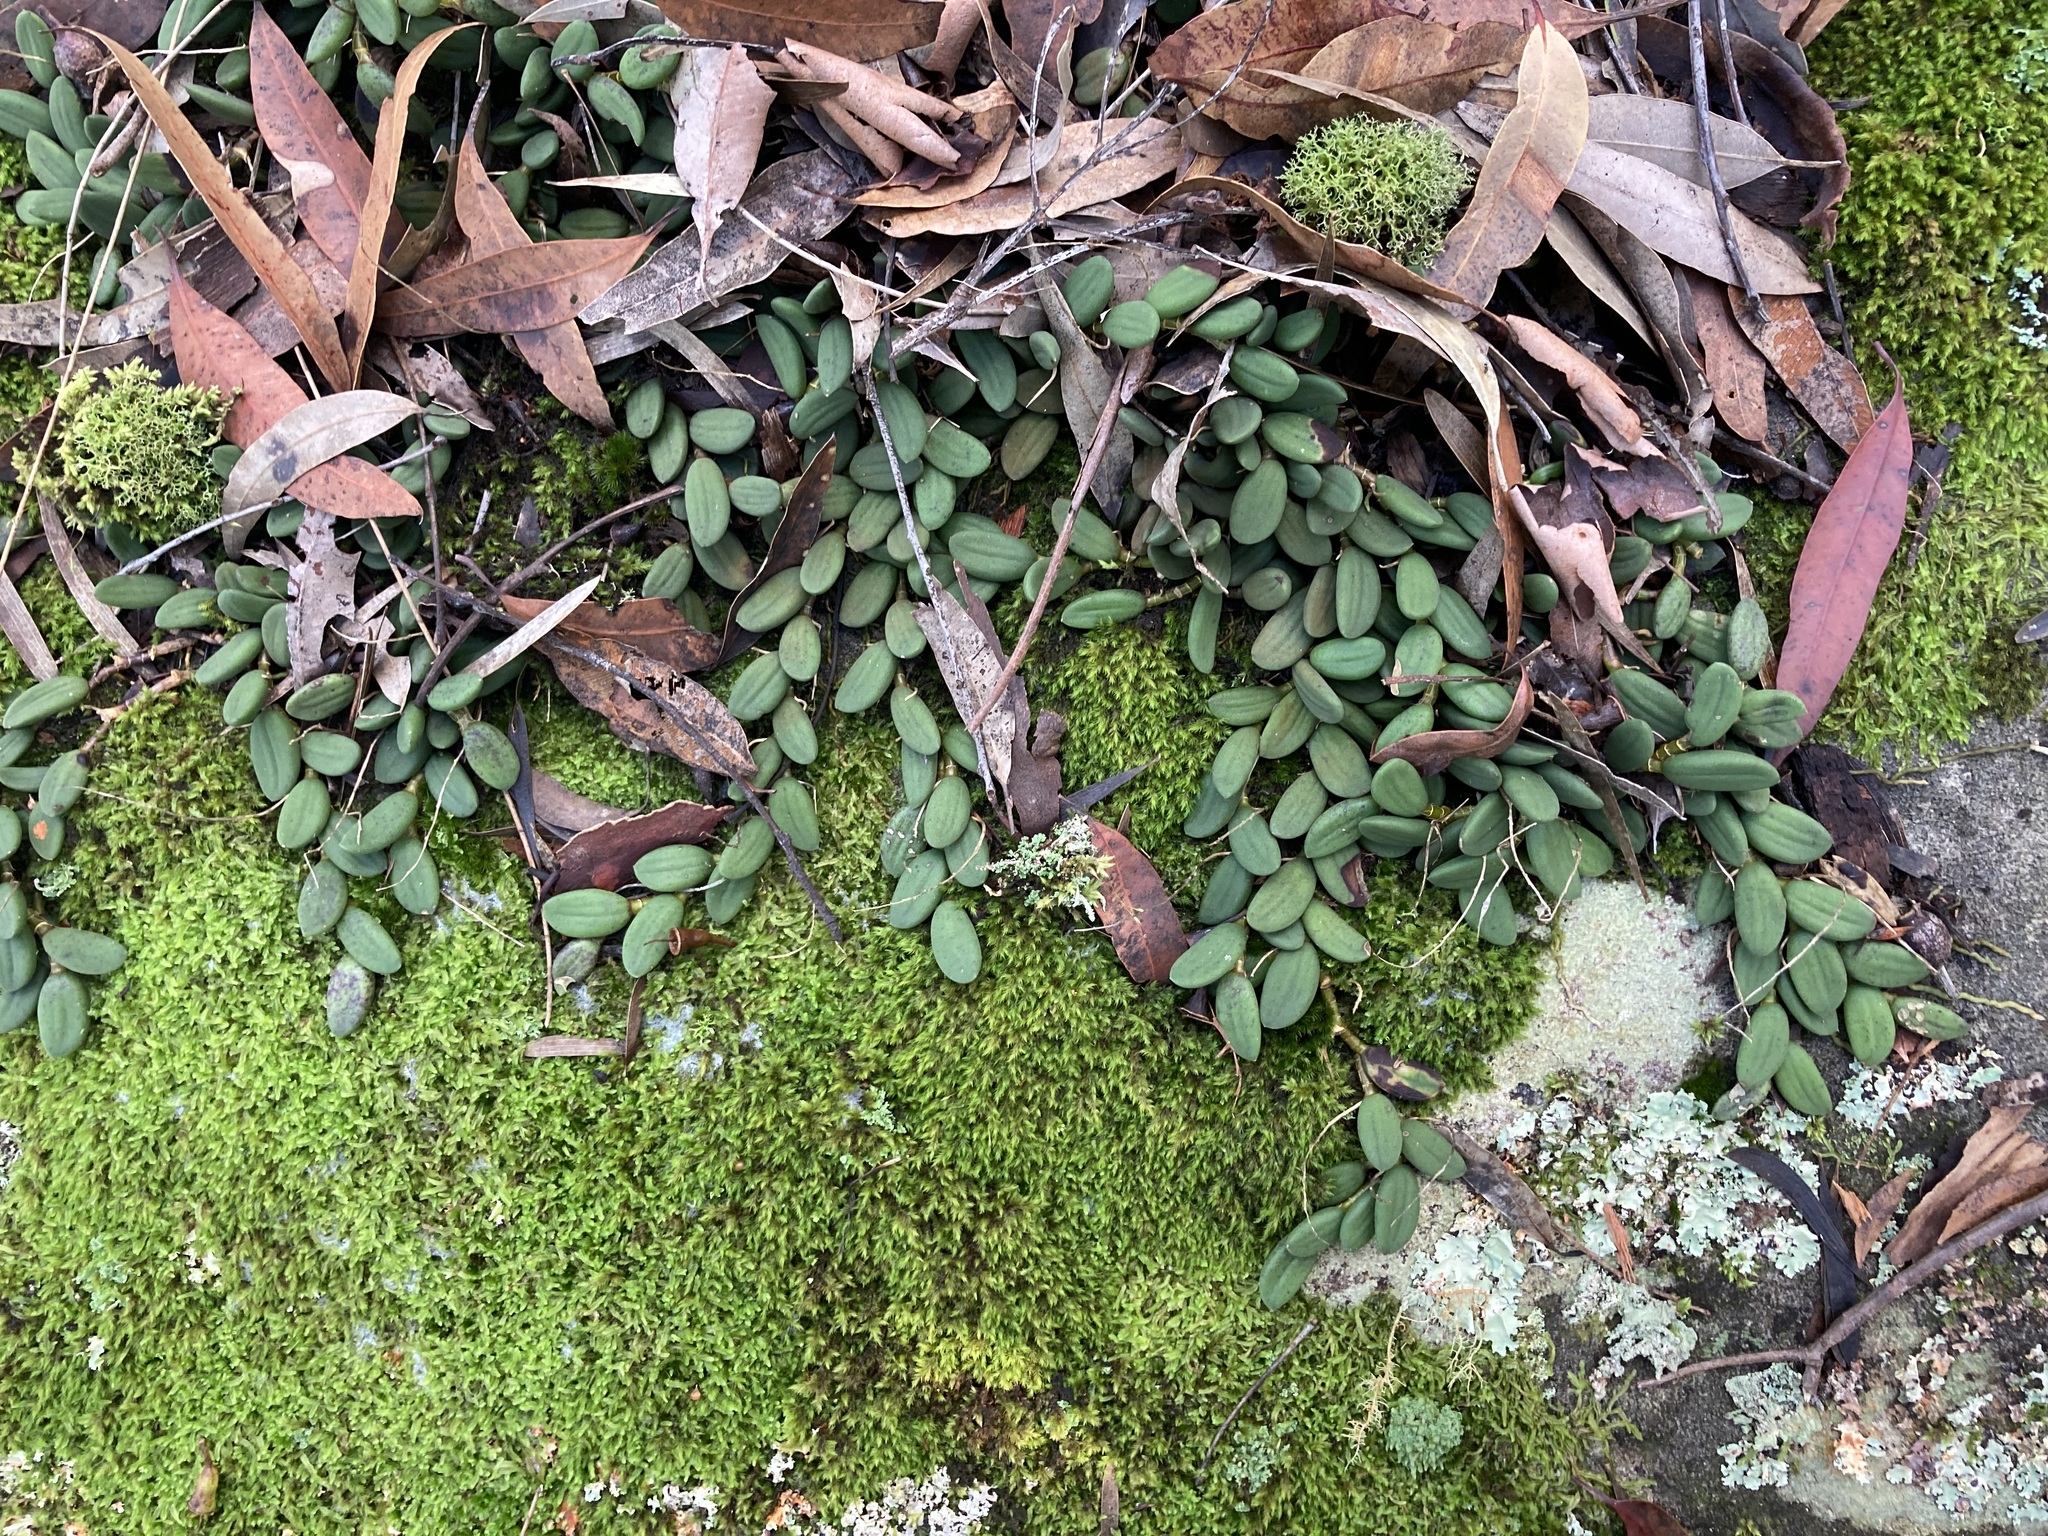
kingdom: Plantae
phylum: Tracheophyta
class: Liliopsida
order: Asparagales
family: Orchidaceae
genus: Dendrobium
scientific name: Dendrobium linguiforme
